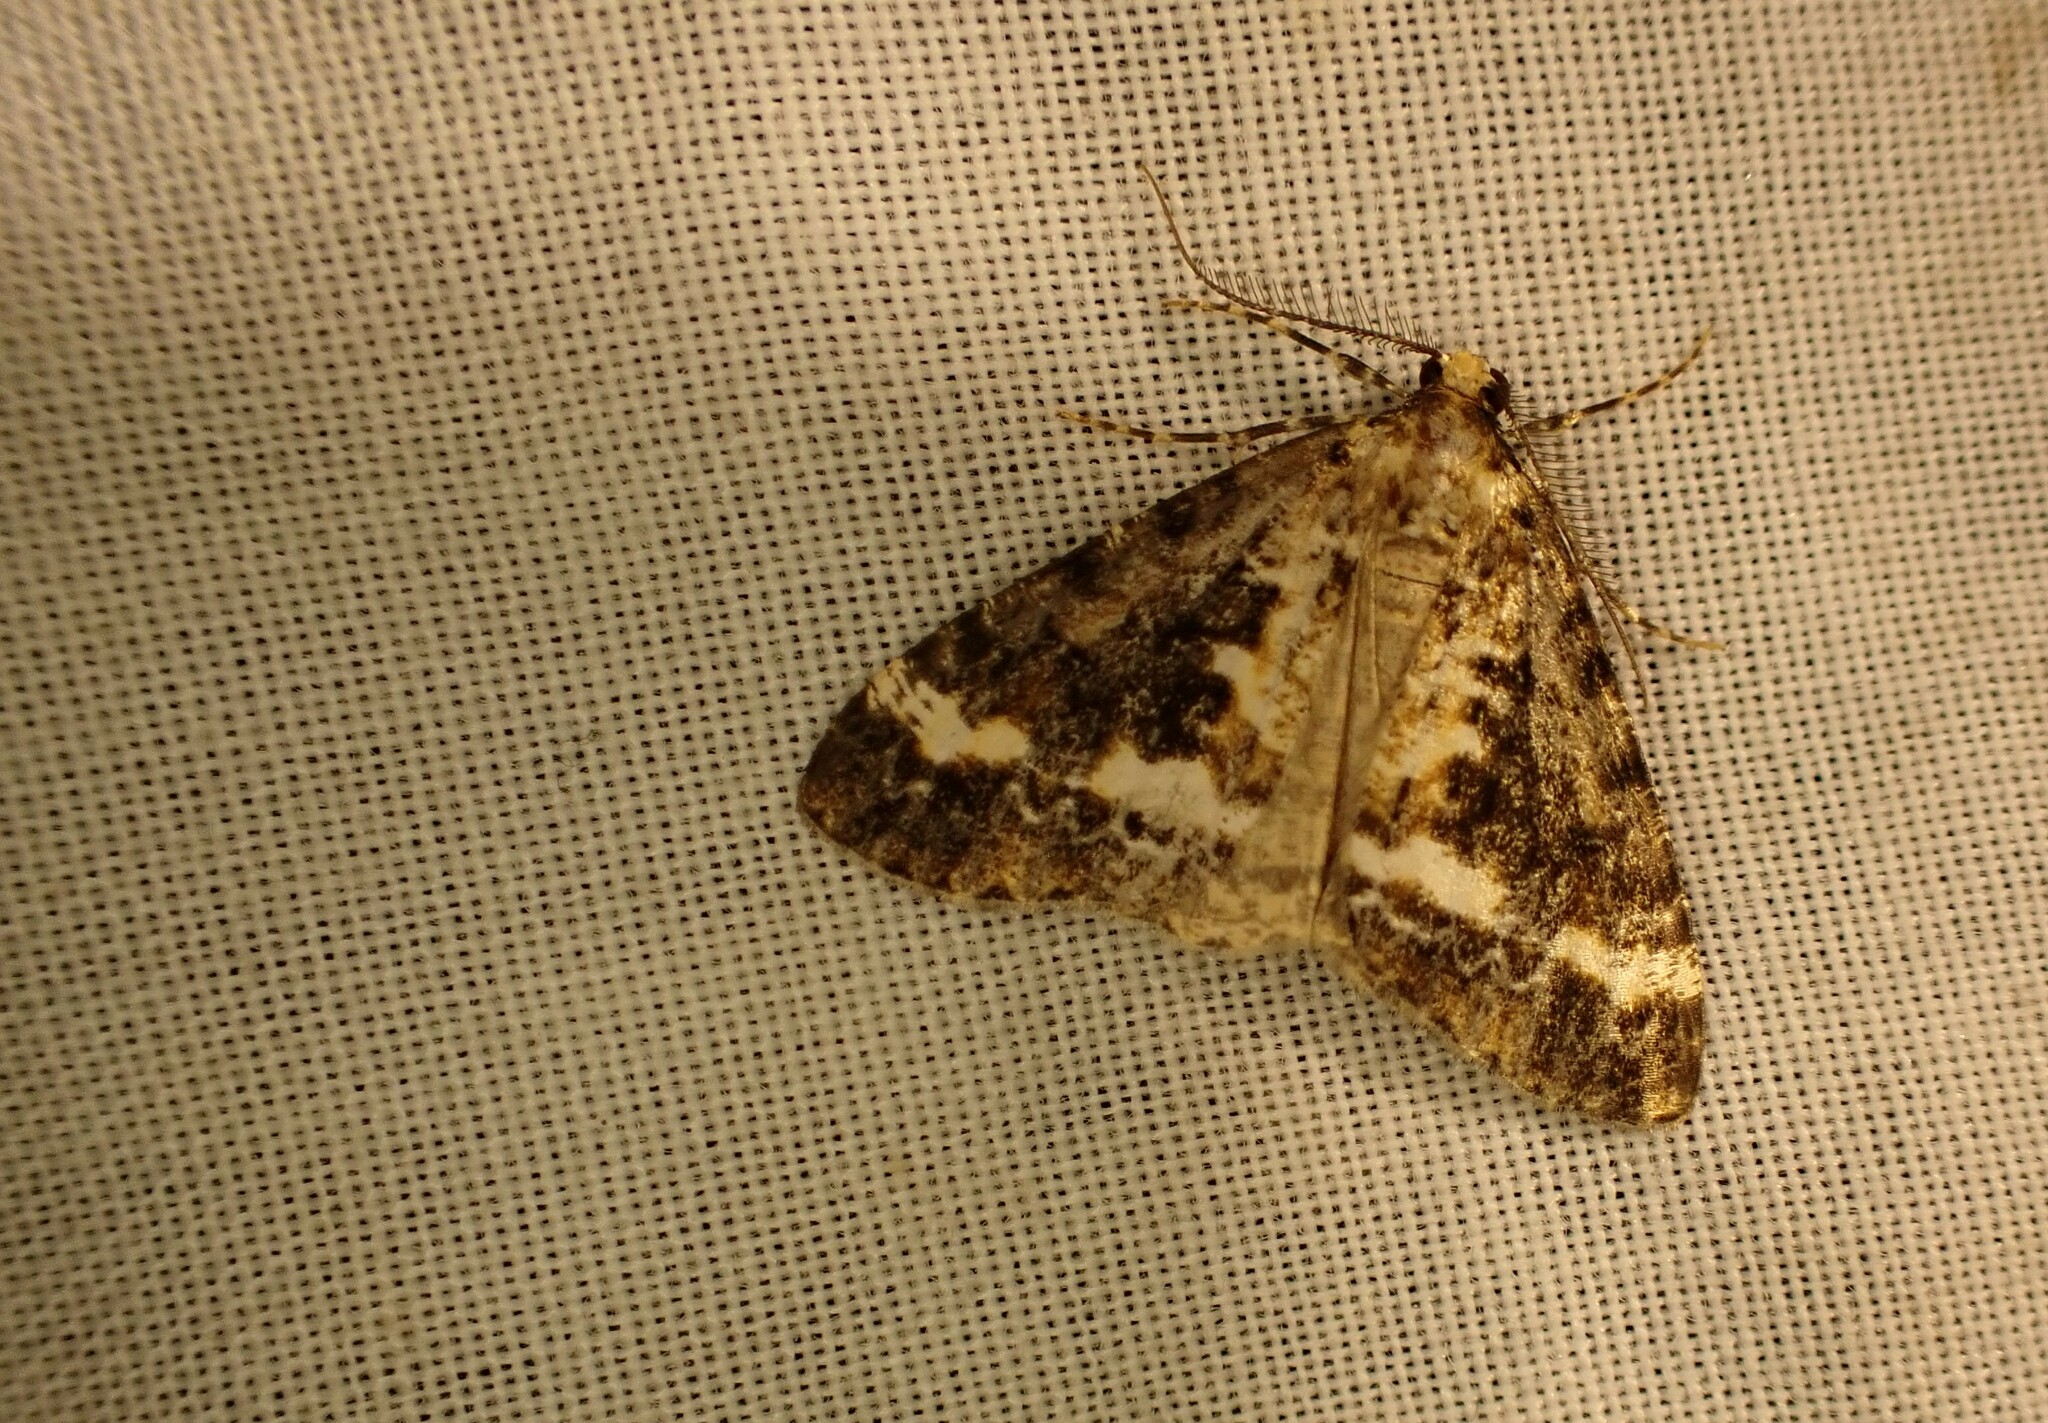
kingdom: Animalia
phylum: Arthropoda
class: Insecta
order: Lepidoptera
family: Geometridae
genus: Pseudocoremia
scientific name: Pseudocoremia leucelaea
